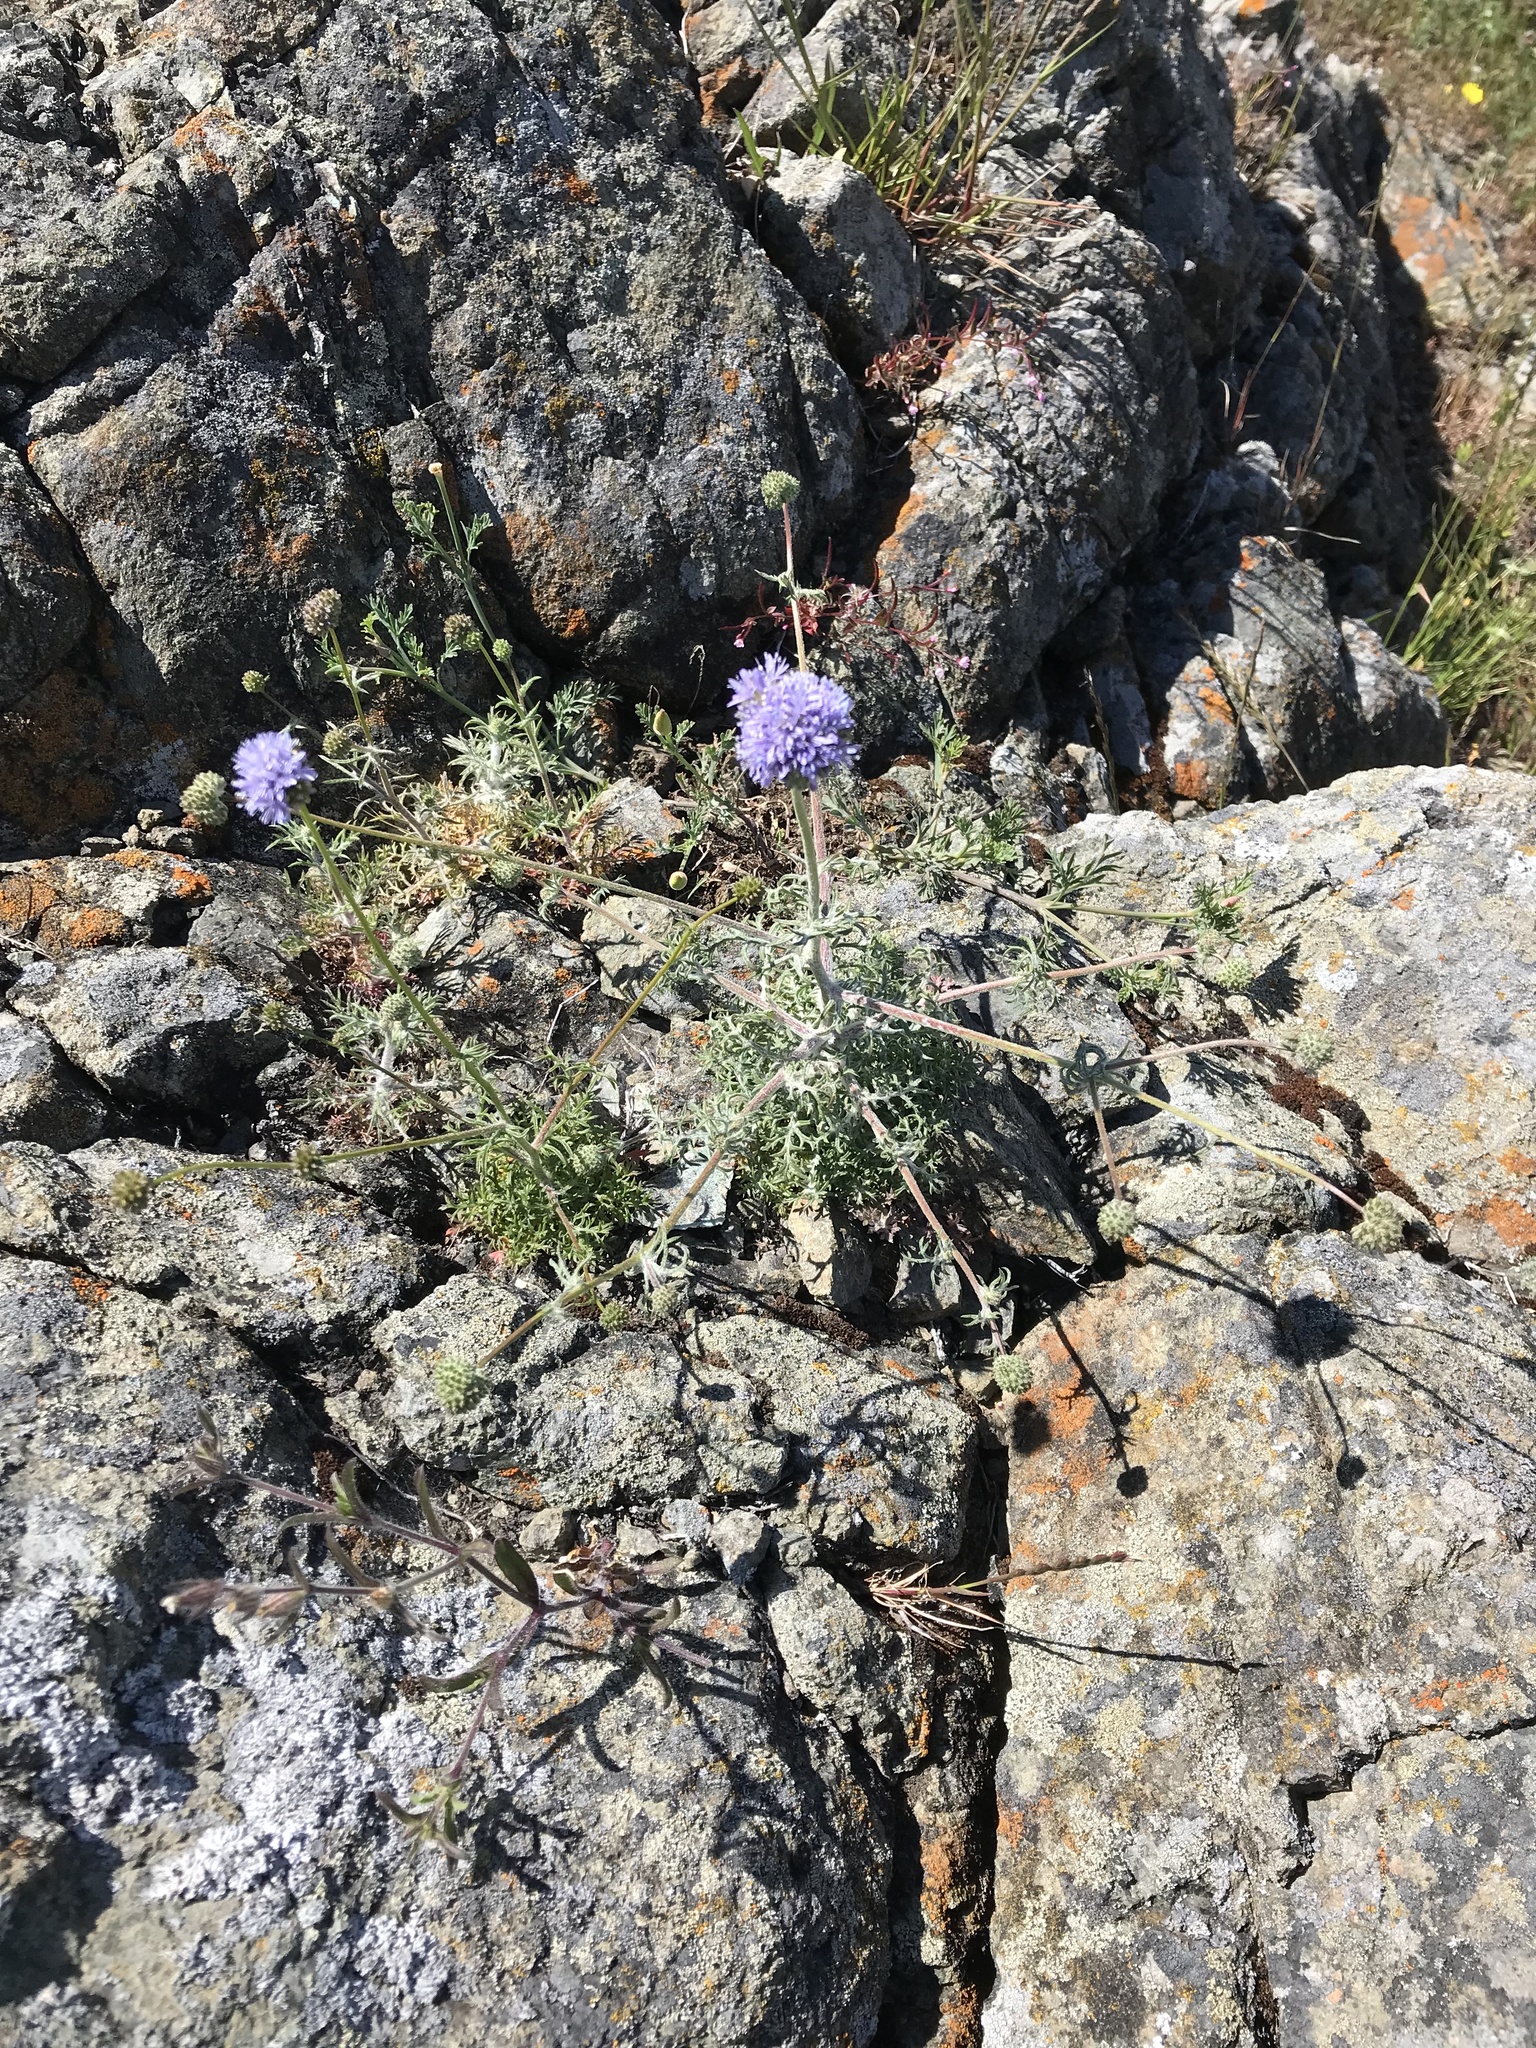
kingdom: Plantae
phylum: Tracheophyta
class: Magnoliopsida
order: Ericales
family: Polemoniaceae
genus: Gilia
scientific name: Gilia capitata
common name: Bluehead gilia
